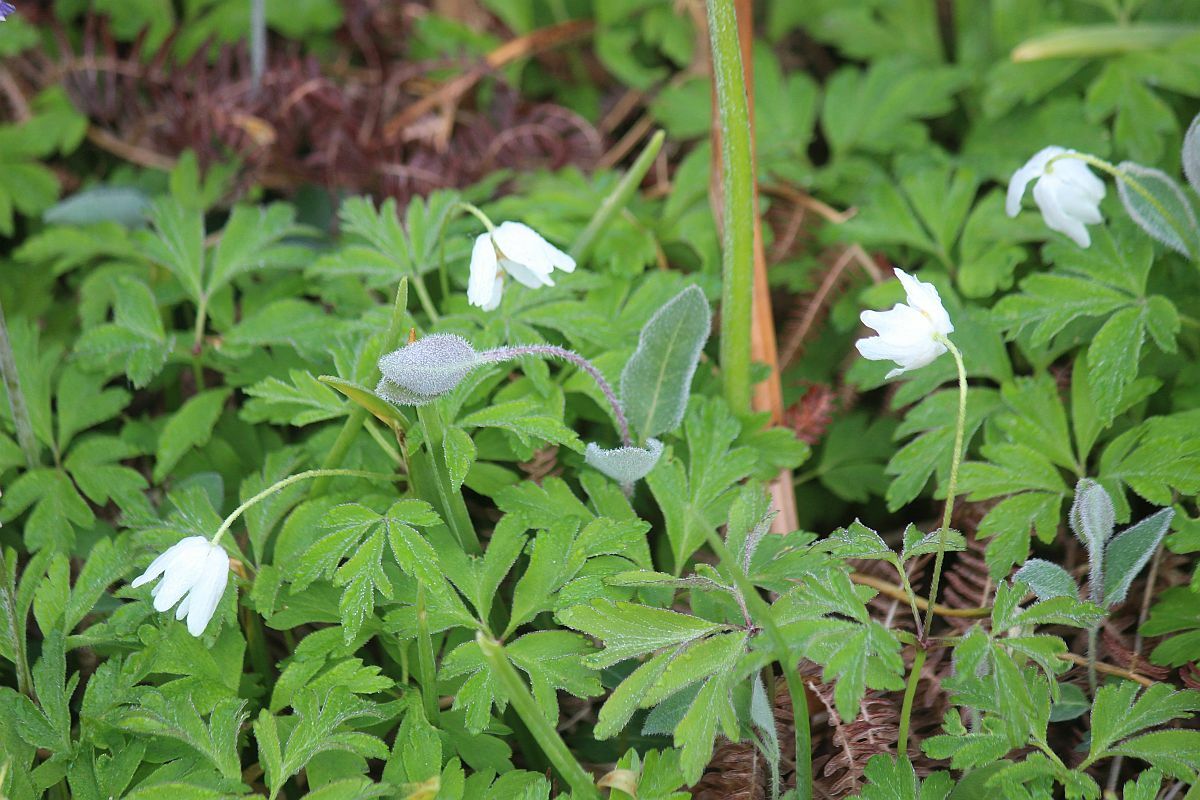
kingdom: Plantae
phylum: Tracheophyta
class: Magnoliopsida
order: Ranunculales
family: Ranunculaceae
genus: Anemone
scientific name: Anemone nemorosa
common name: Wood anemone
